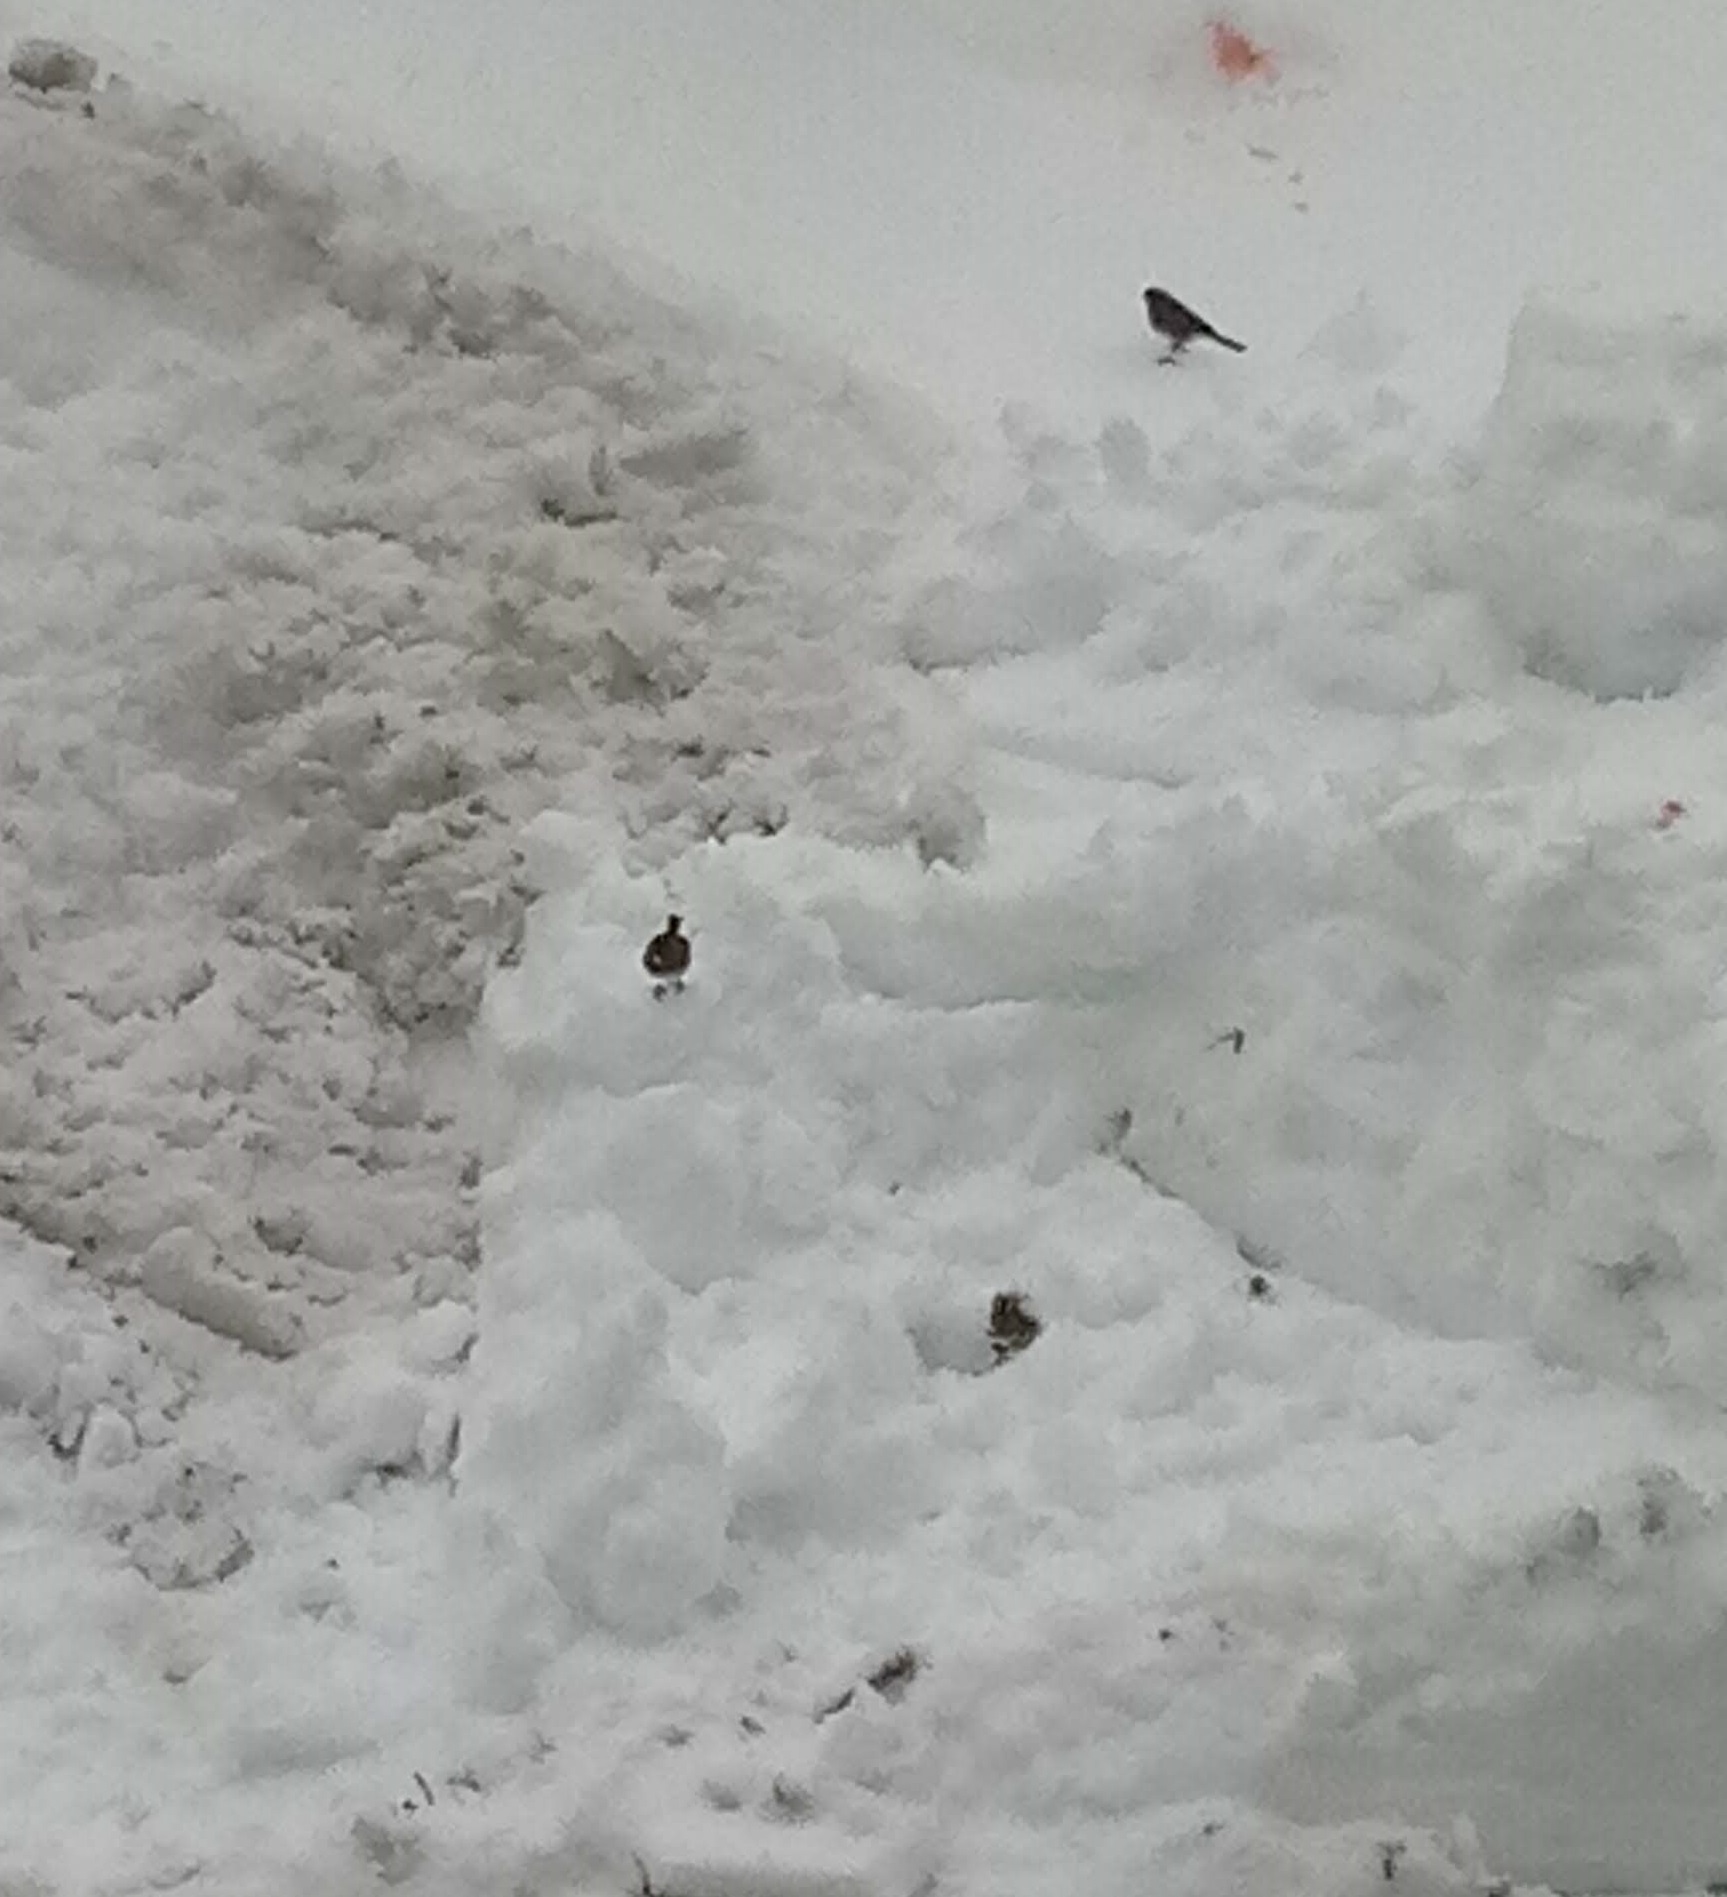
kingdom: Animalia
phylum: Chordata
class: Aves
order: Passeriformes
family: Passerellidae
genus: Junco
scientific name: Junco hyemalis
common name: Dark-eyed junco
